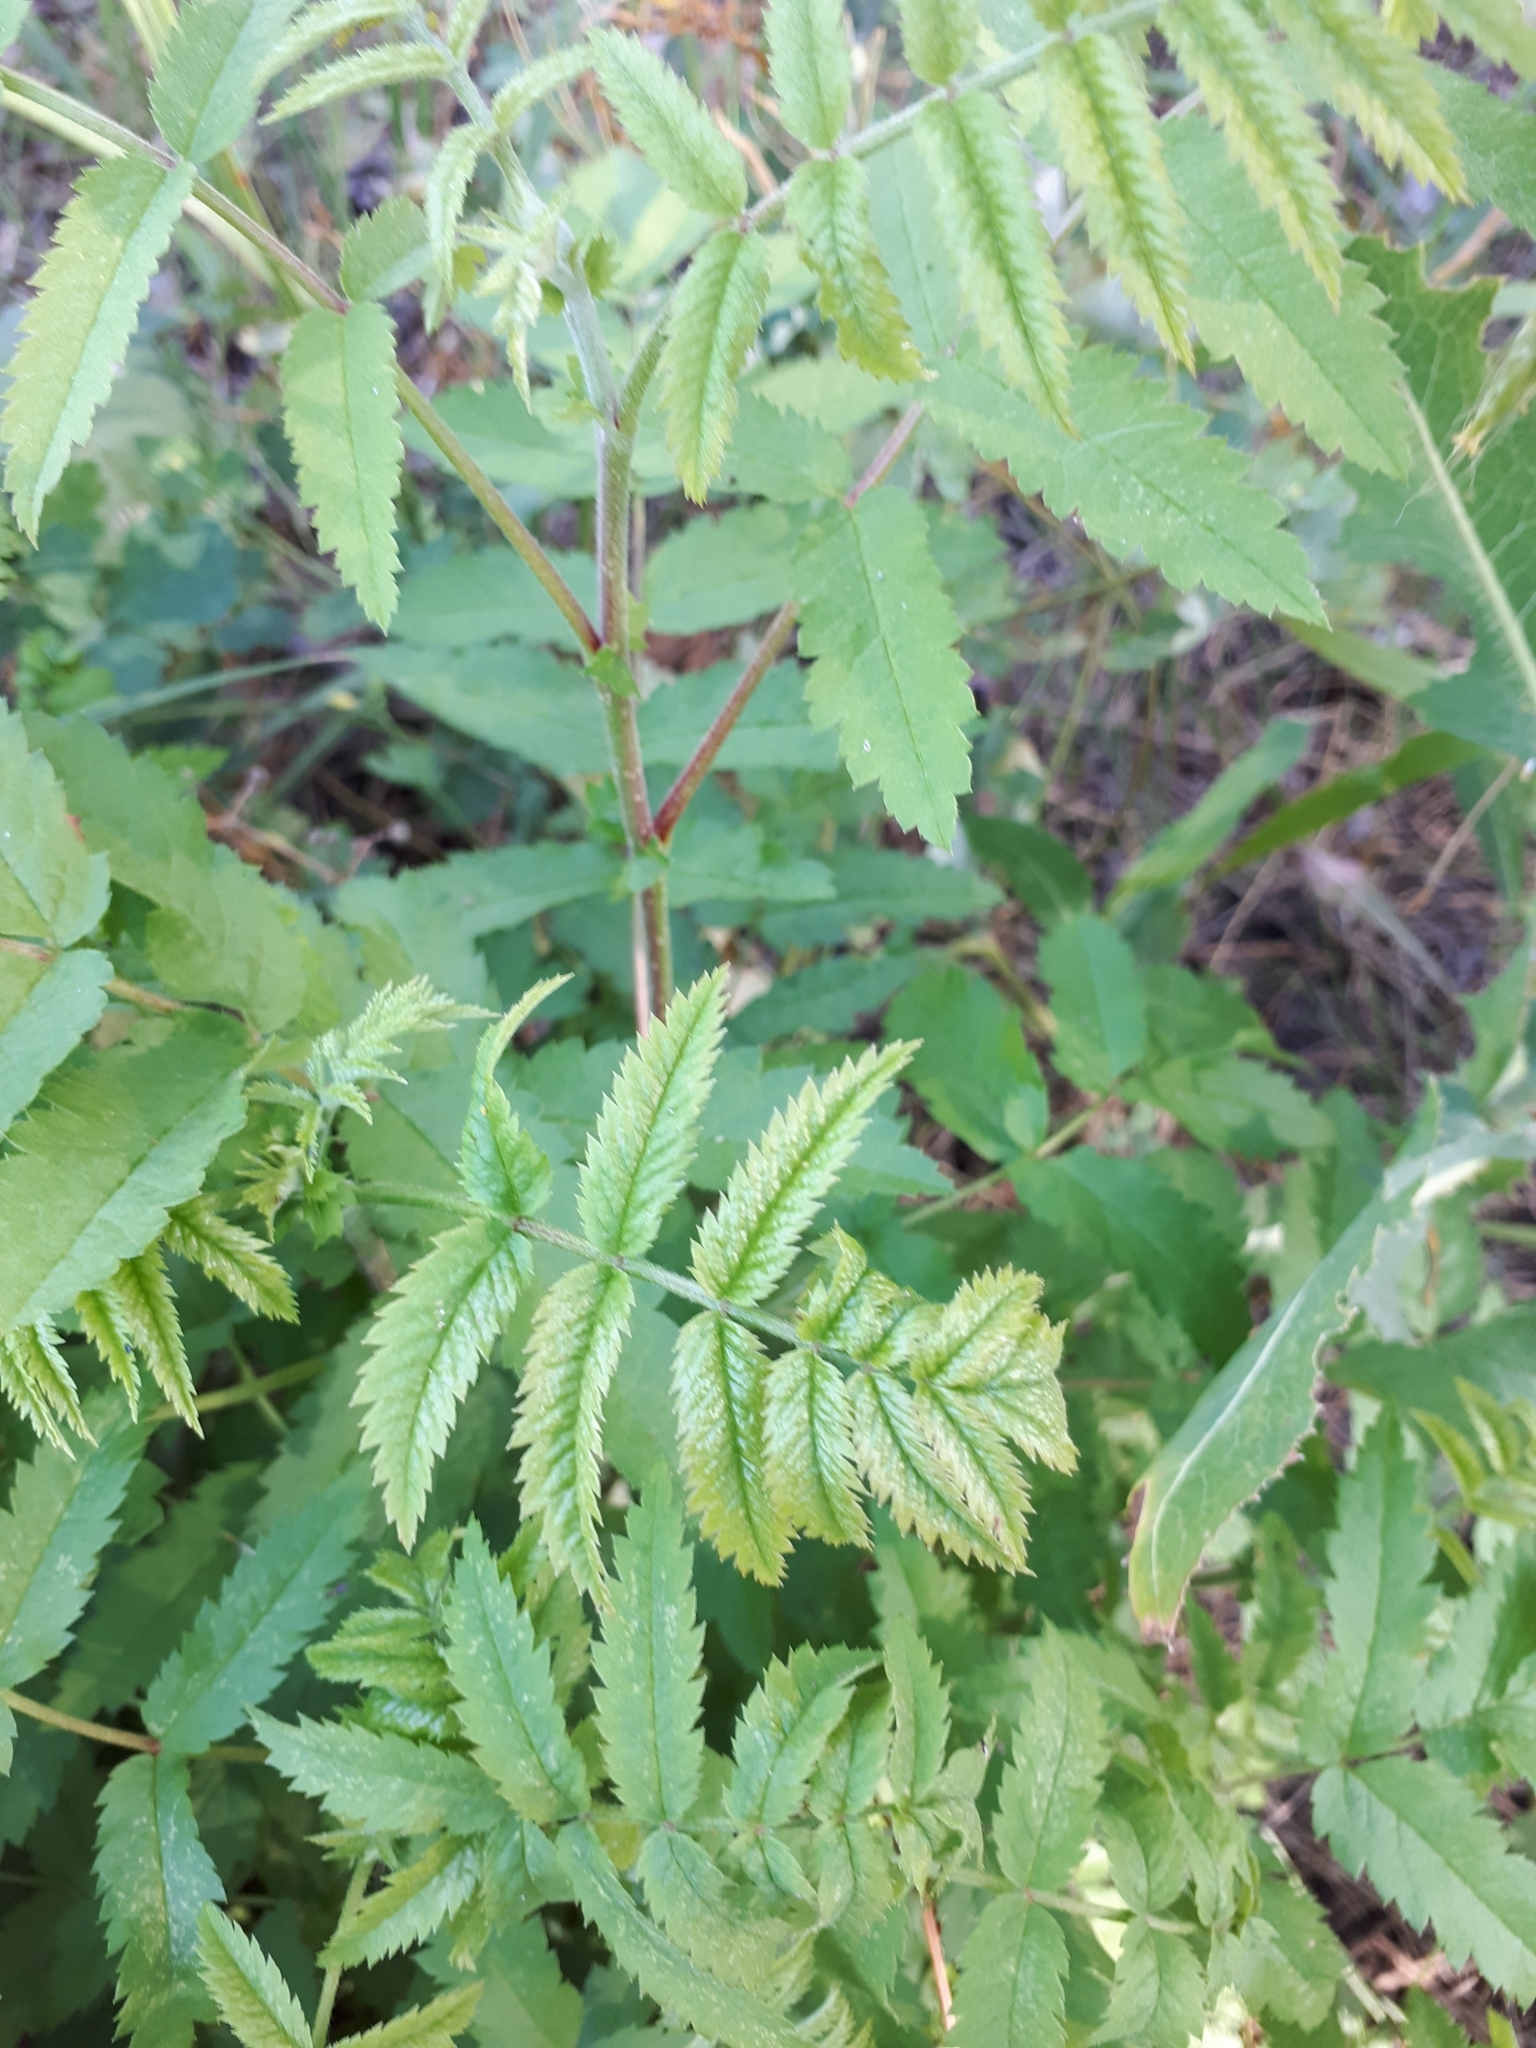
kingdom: Plantae
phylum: Tracheophyta
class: Magnoliopsida
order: Rosales
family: Rosaceae
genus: Sorbus
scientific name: Sorbus aucuparia
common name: Rowan
